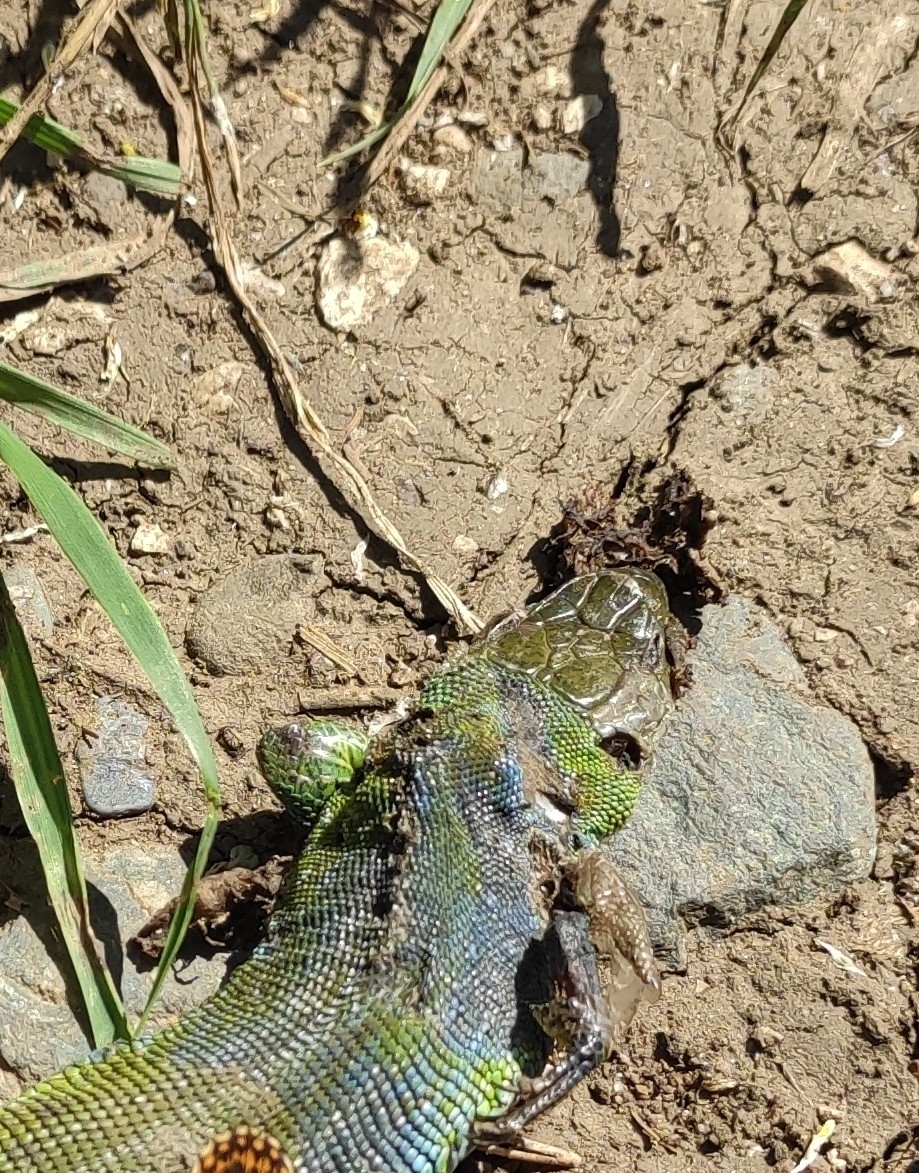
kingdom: Animalia
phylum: Chordata
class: Squamata
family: Lacertidae
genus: Lacerta
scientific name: Lacerta agilis
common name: Sand lizard
